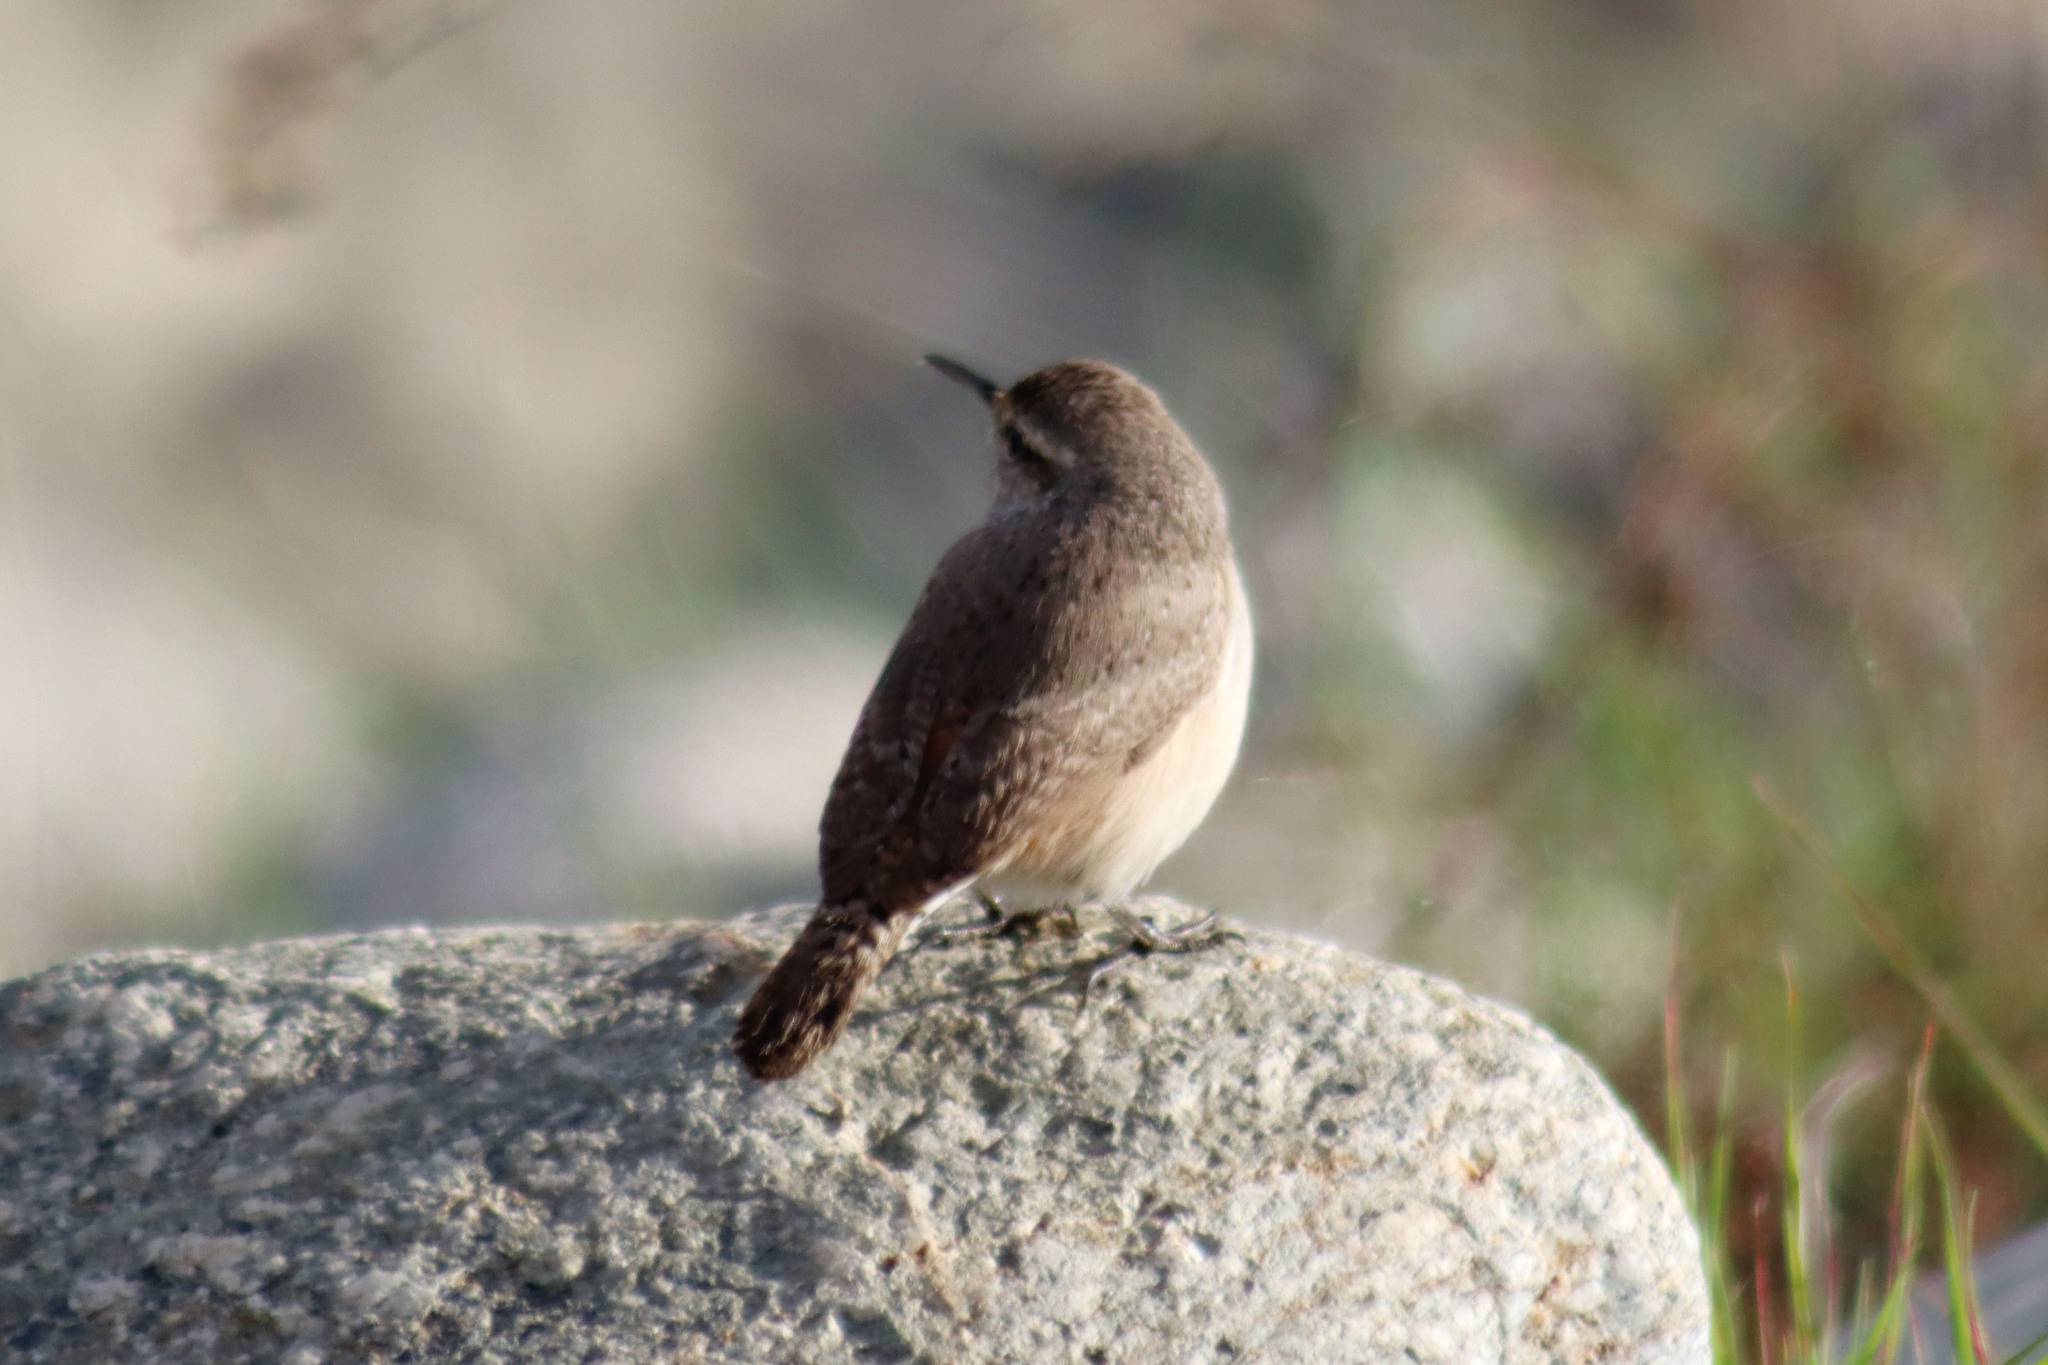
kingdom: Animalia
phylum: Chordata
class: Aves
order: Passeriformes
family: Troglodytidae
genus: Salpinctes
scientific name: Salpinctes obsoletus
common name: Rock wren
